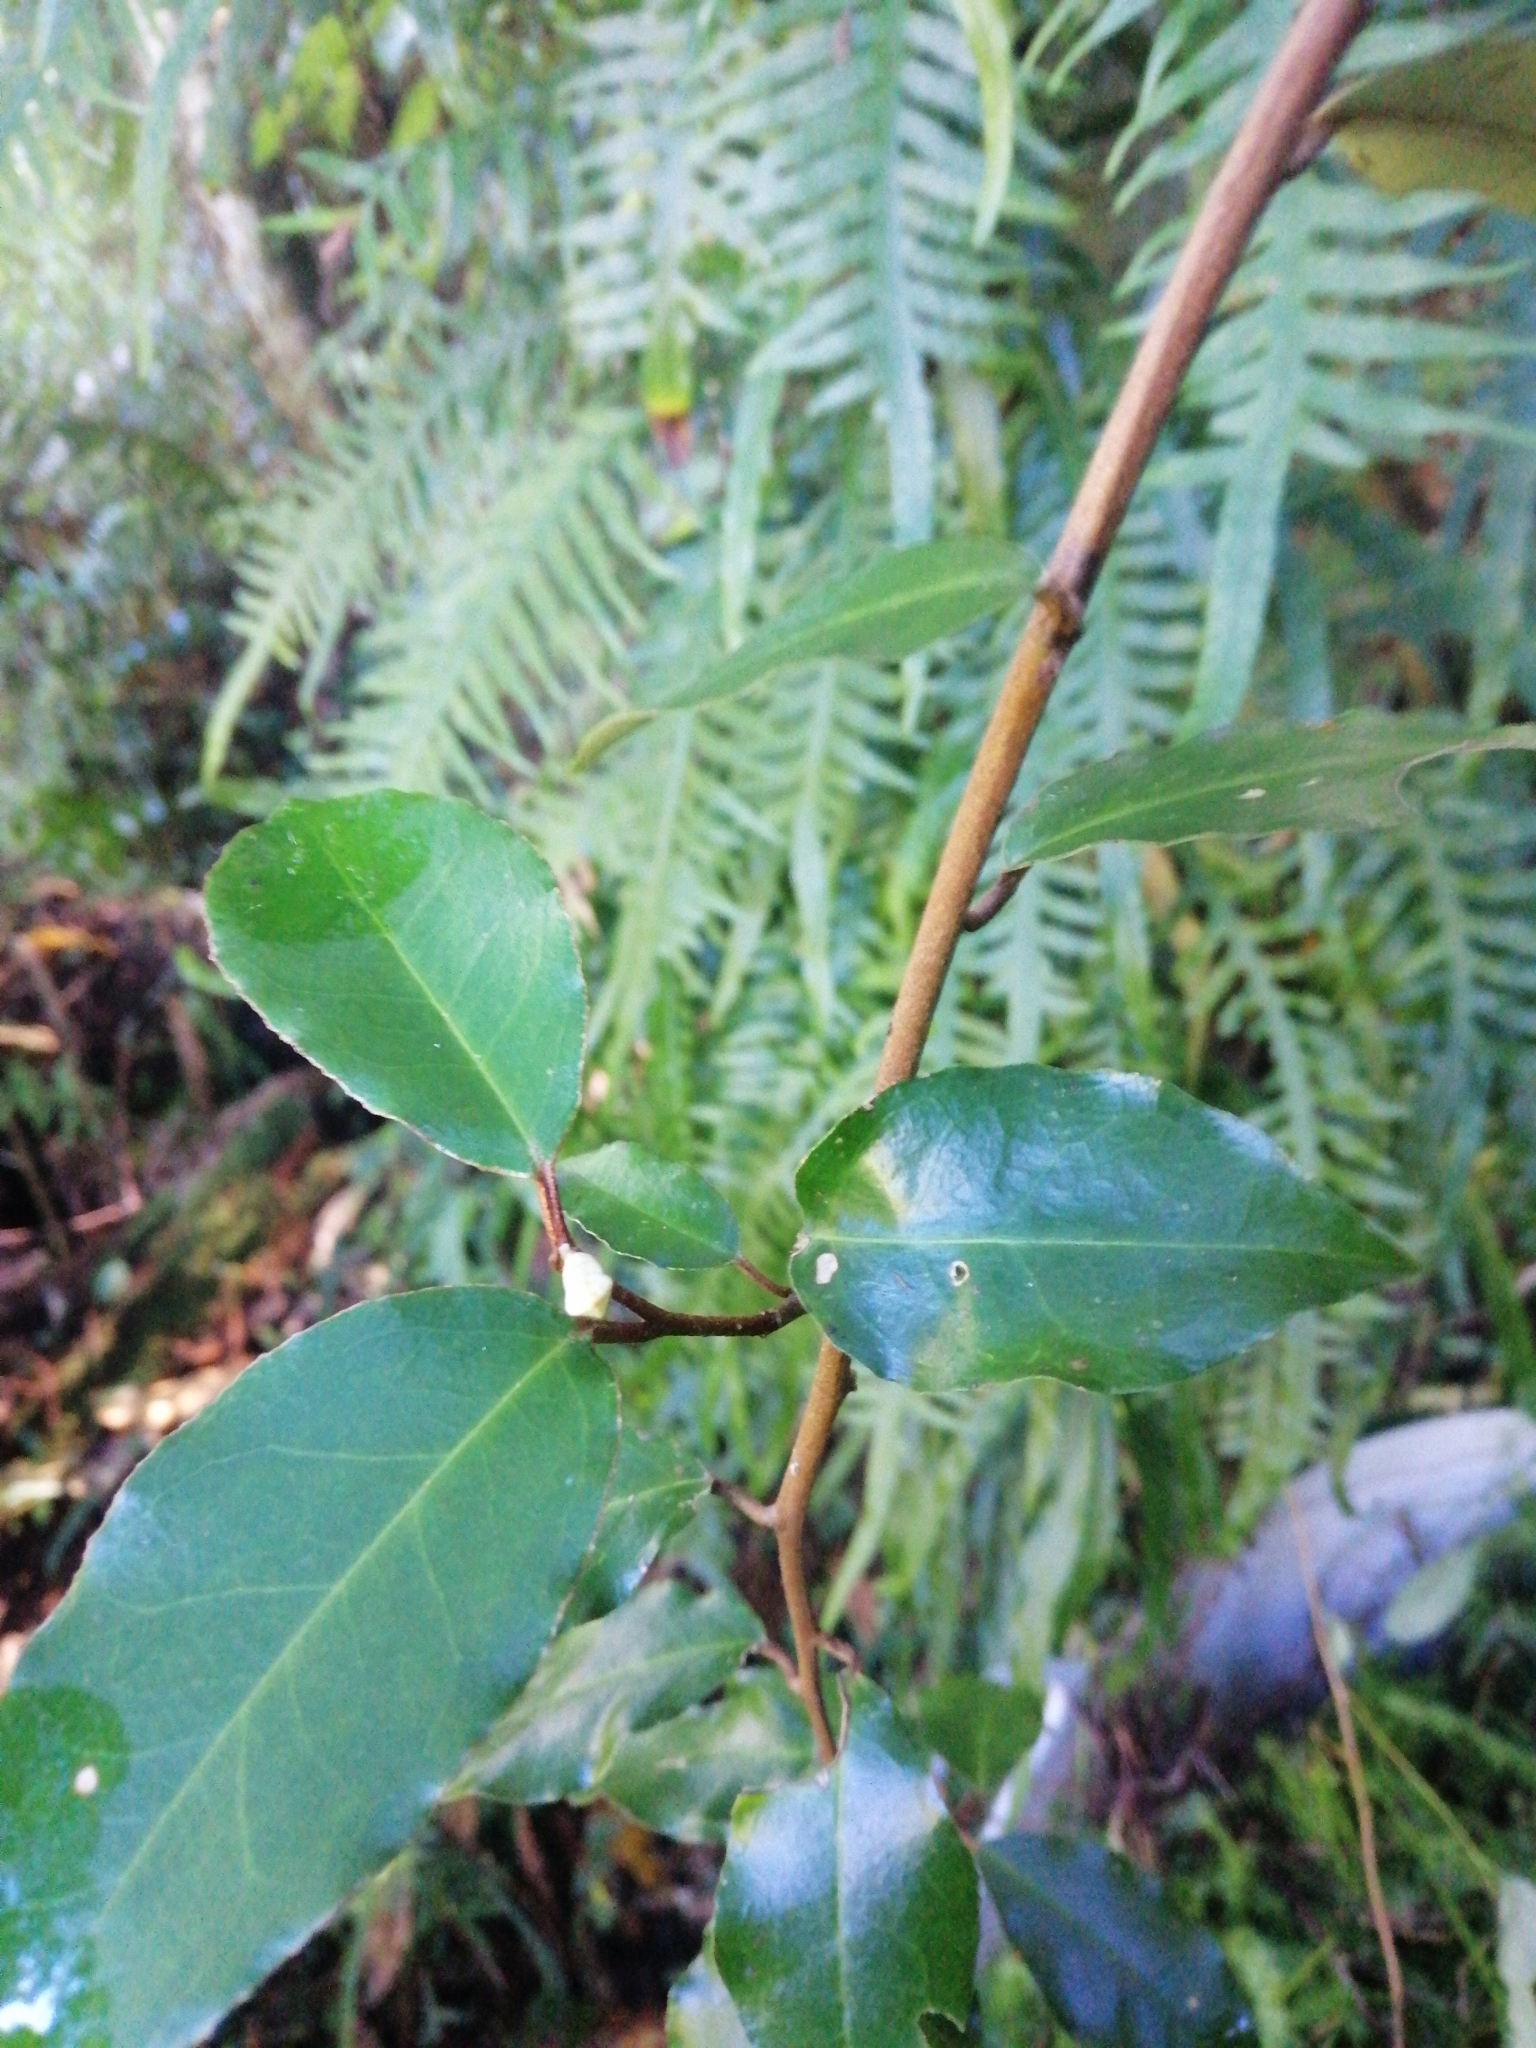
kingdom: Plantae
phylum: Tracheophyta
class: Magnoliopsida
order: Rosales
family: Elaeagnaceae
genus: Elaeagnus
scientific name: Elaeagnus reflexa
